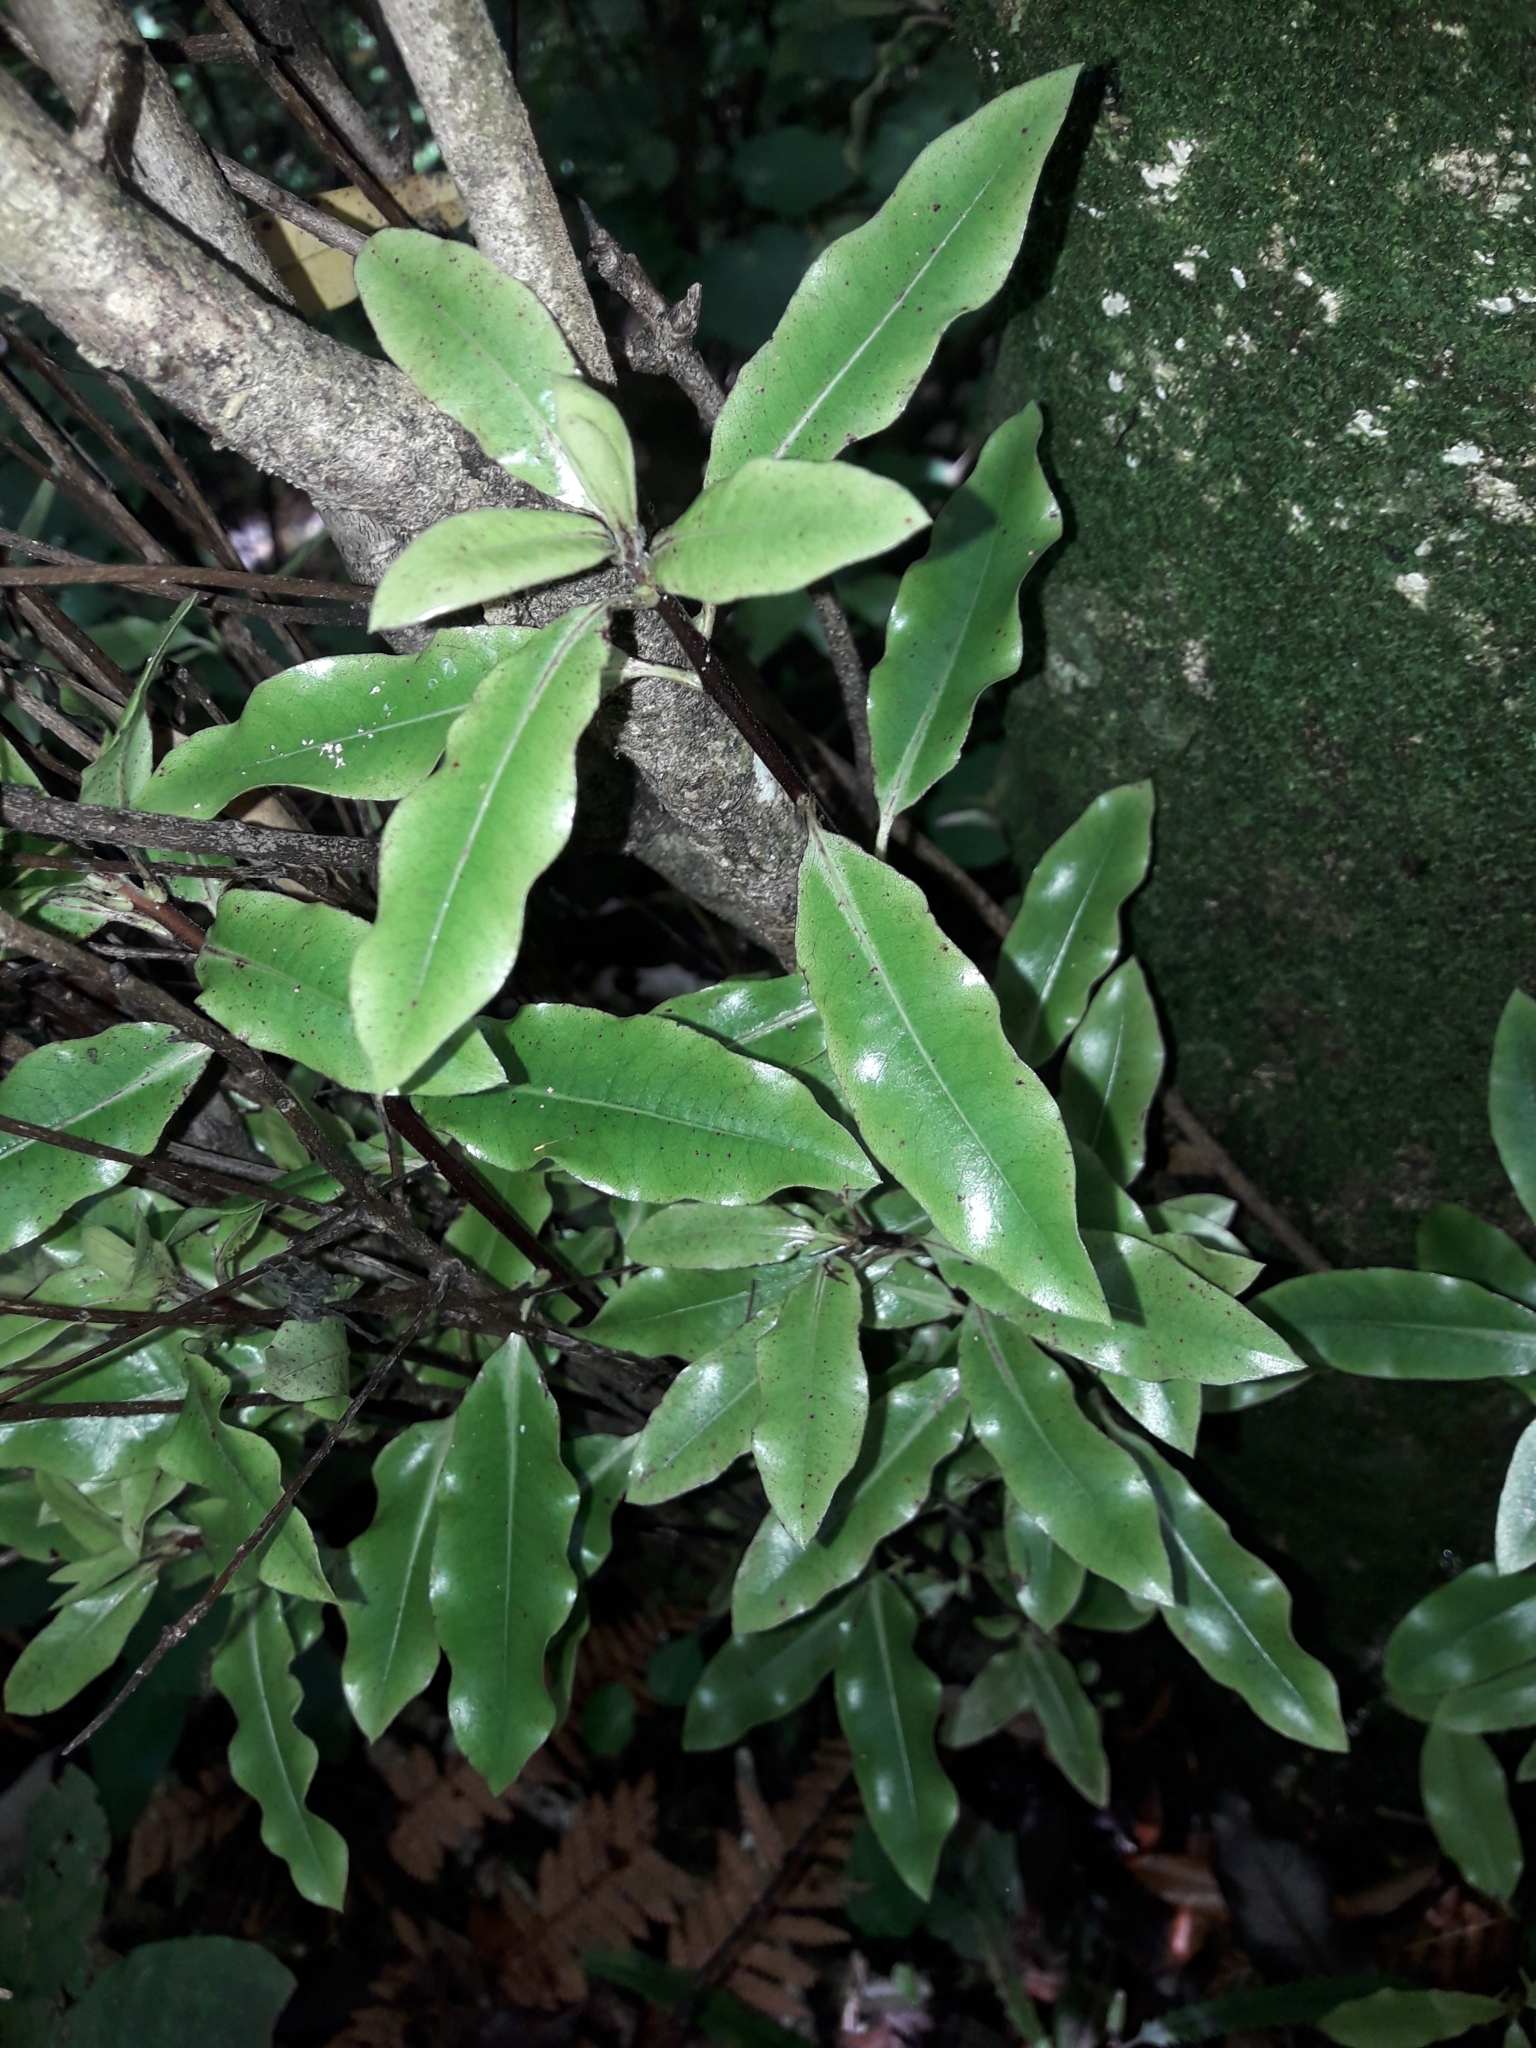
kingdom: Plantae
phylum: Tracheophyta
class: Magnoliopsida
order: Apiales
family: Pittosporaceae
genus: Pittosporum
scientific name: Pittosporum eugenioides
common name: Lemonwood
